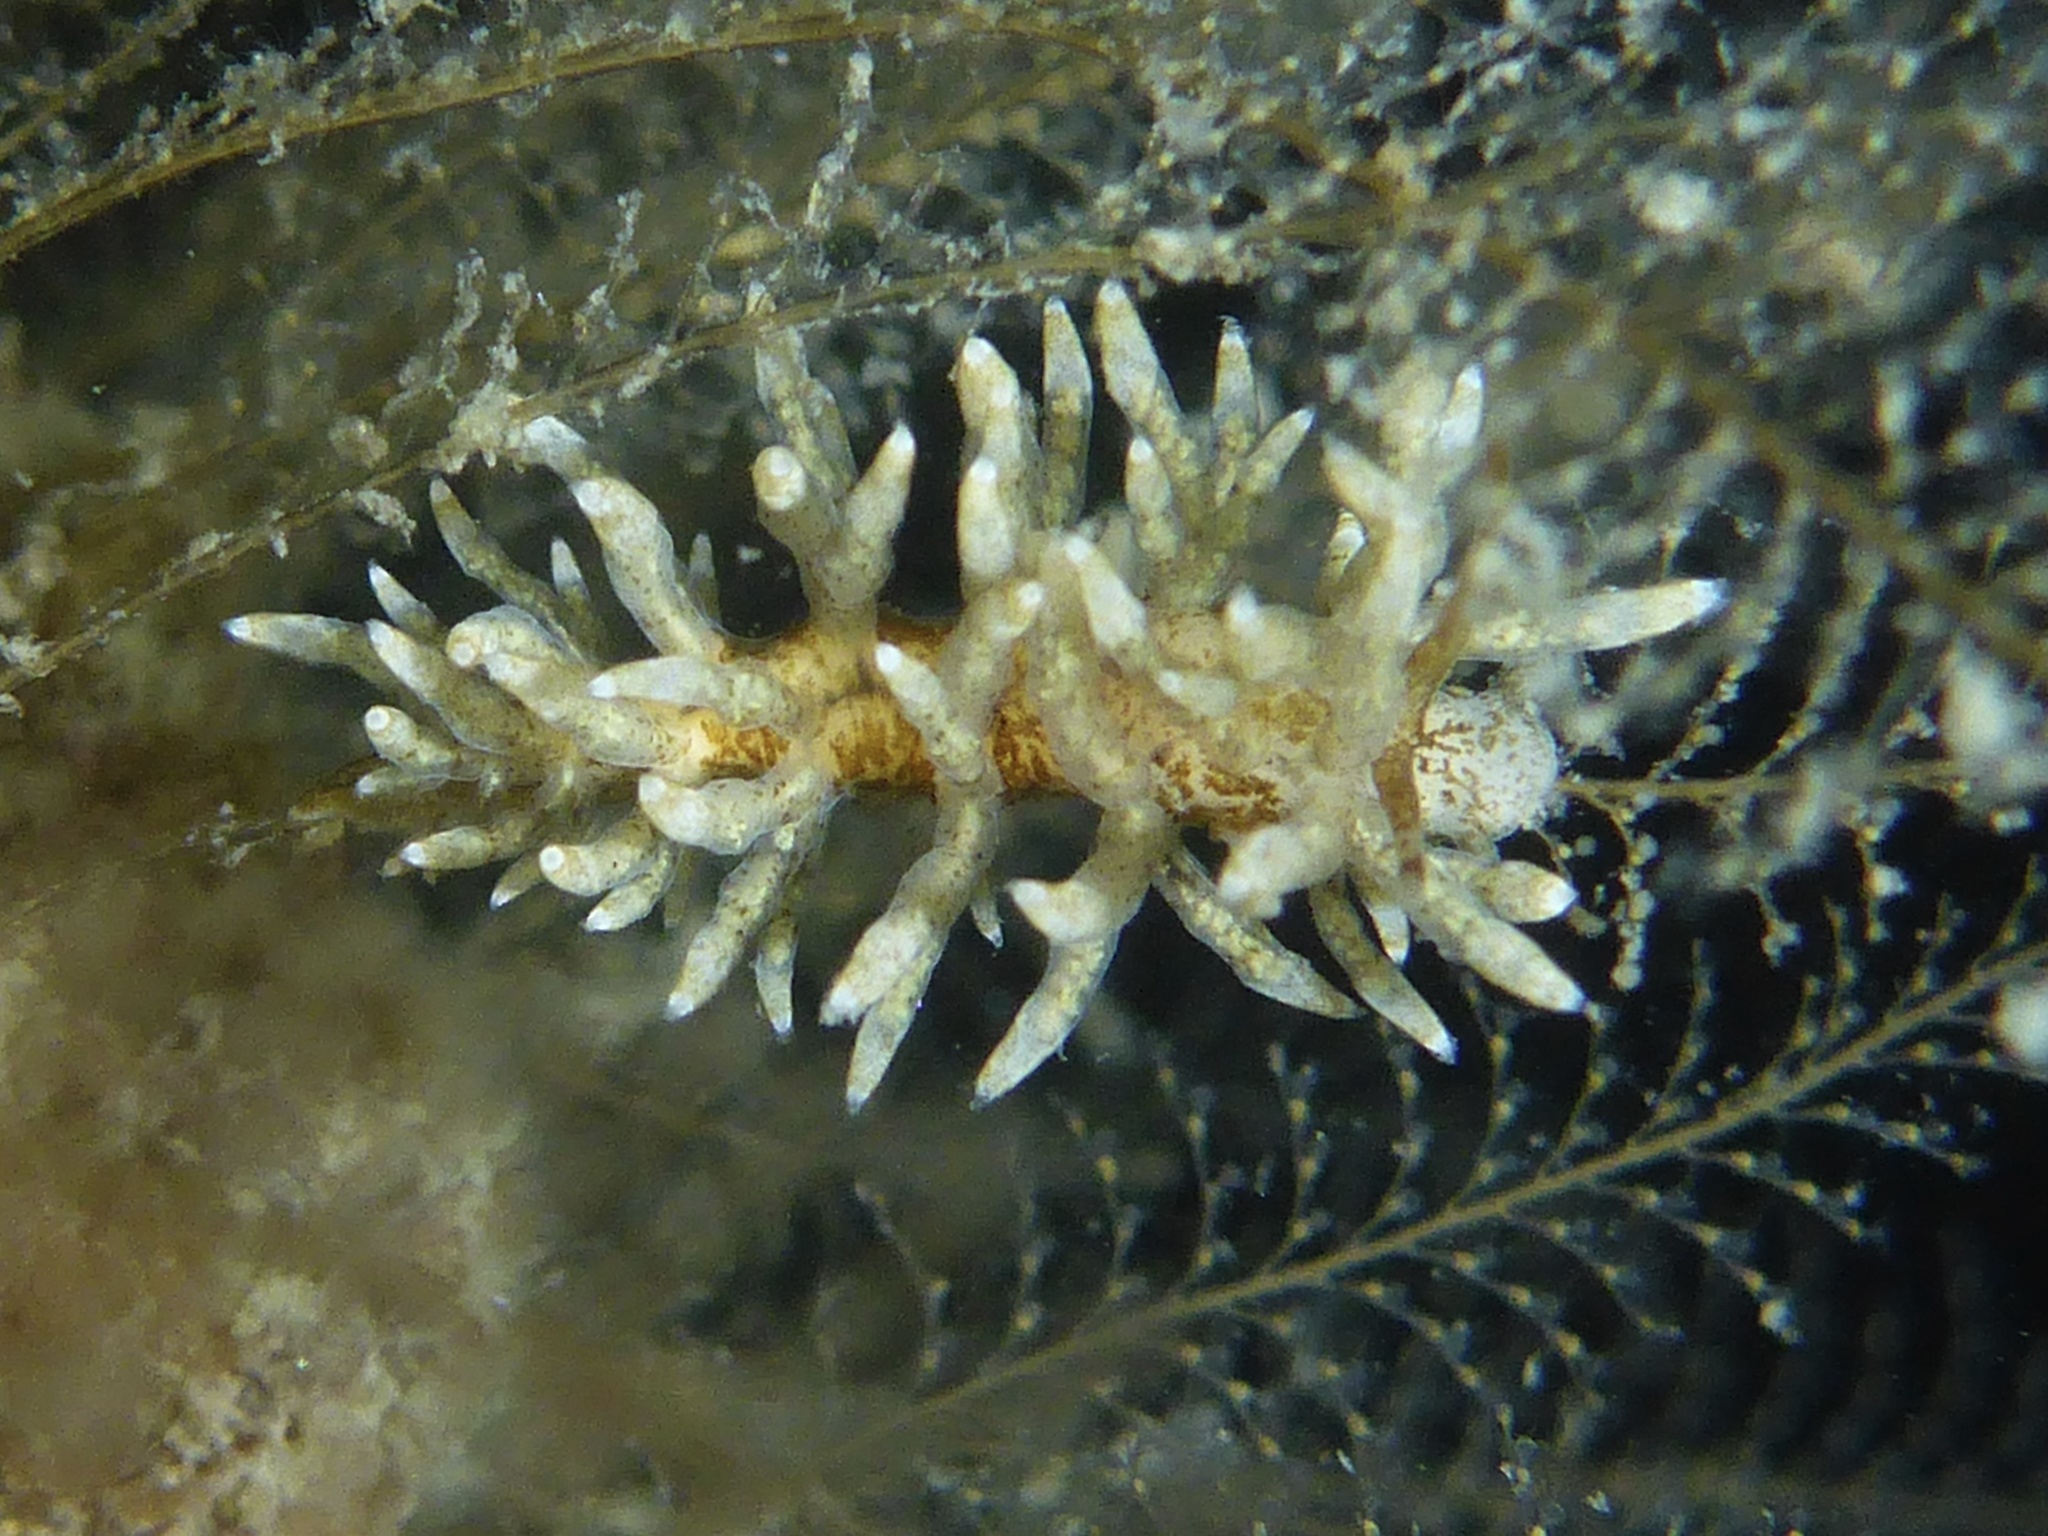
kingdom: Animalia
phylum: Mollusca
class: Gastropoda
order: Nudibranchia
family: Eubranchidae
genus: Eubranchus
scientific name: Eubranchus rustyus
